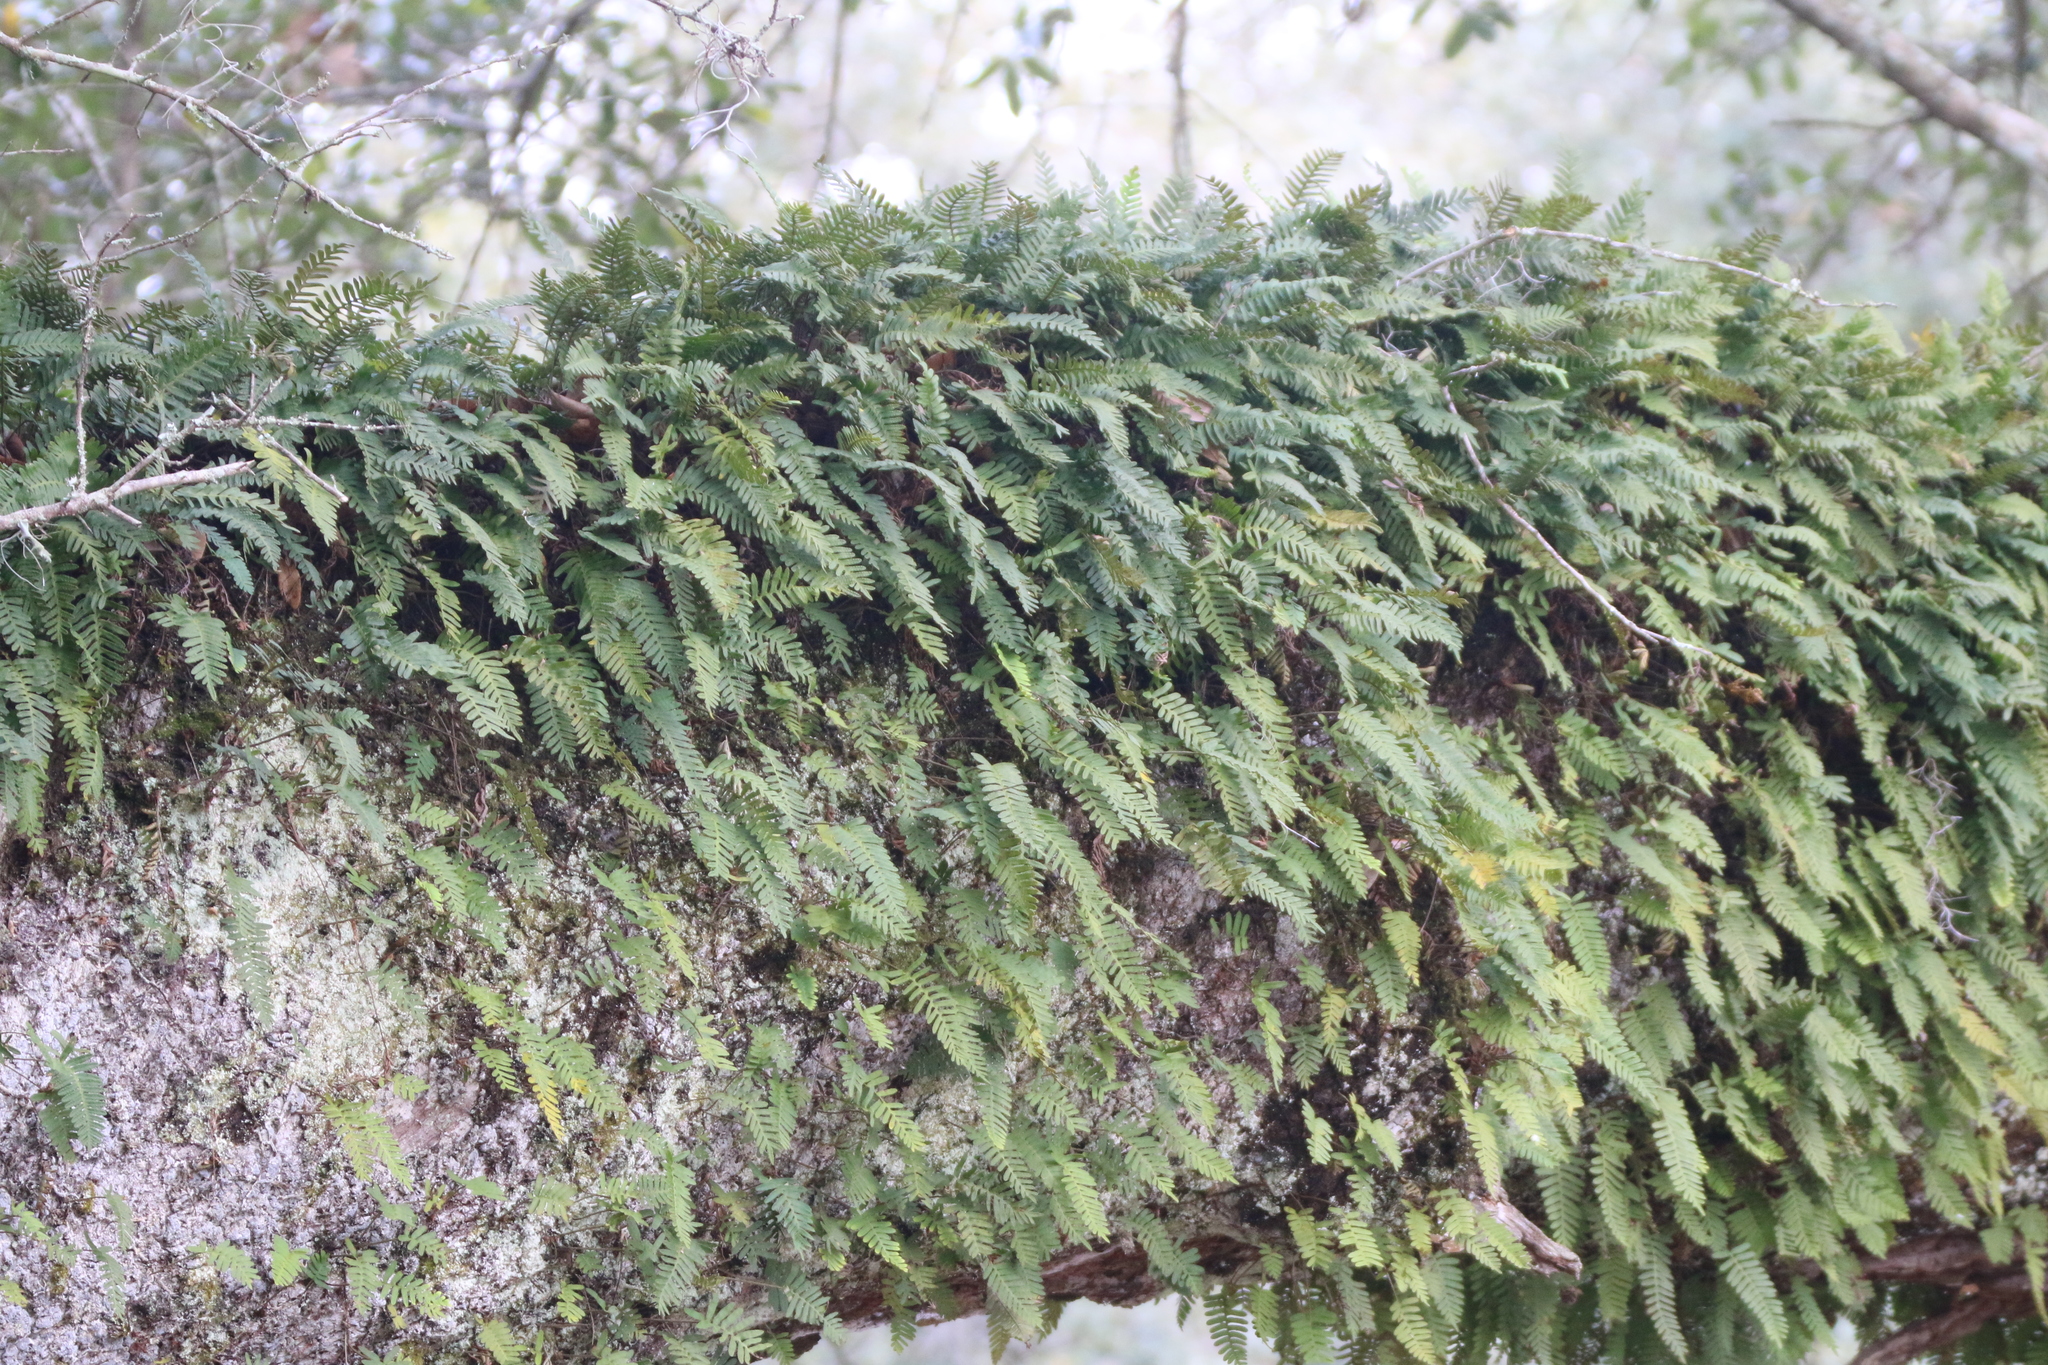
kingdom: Plantae
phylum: Tracheophyta
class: Polypodiopsida
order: Polypodiales
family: Polypodiaceae
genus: Pleopeltis
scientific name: Pleopeltis michauxiana
